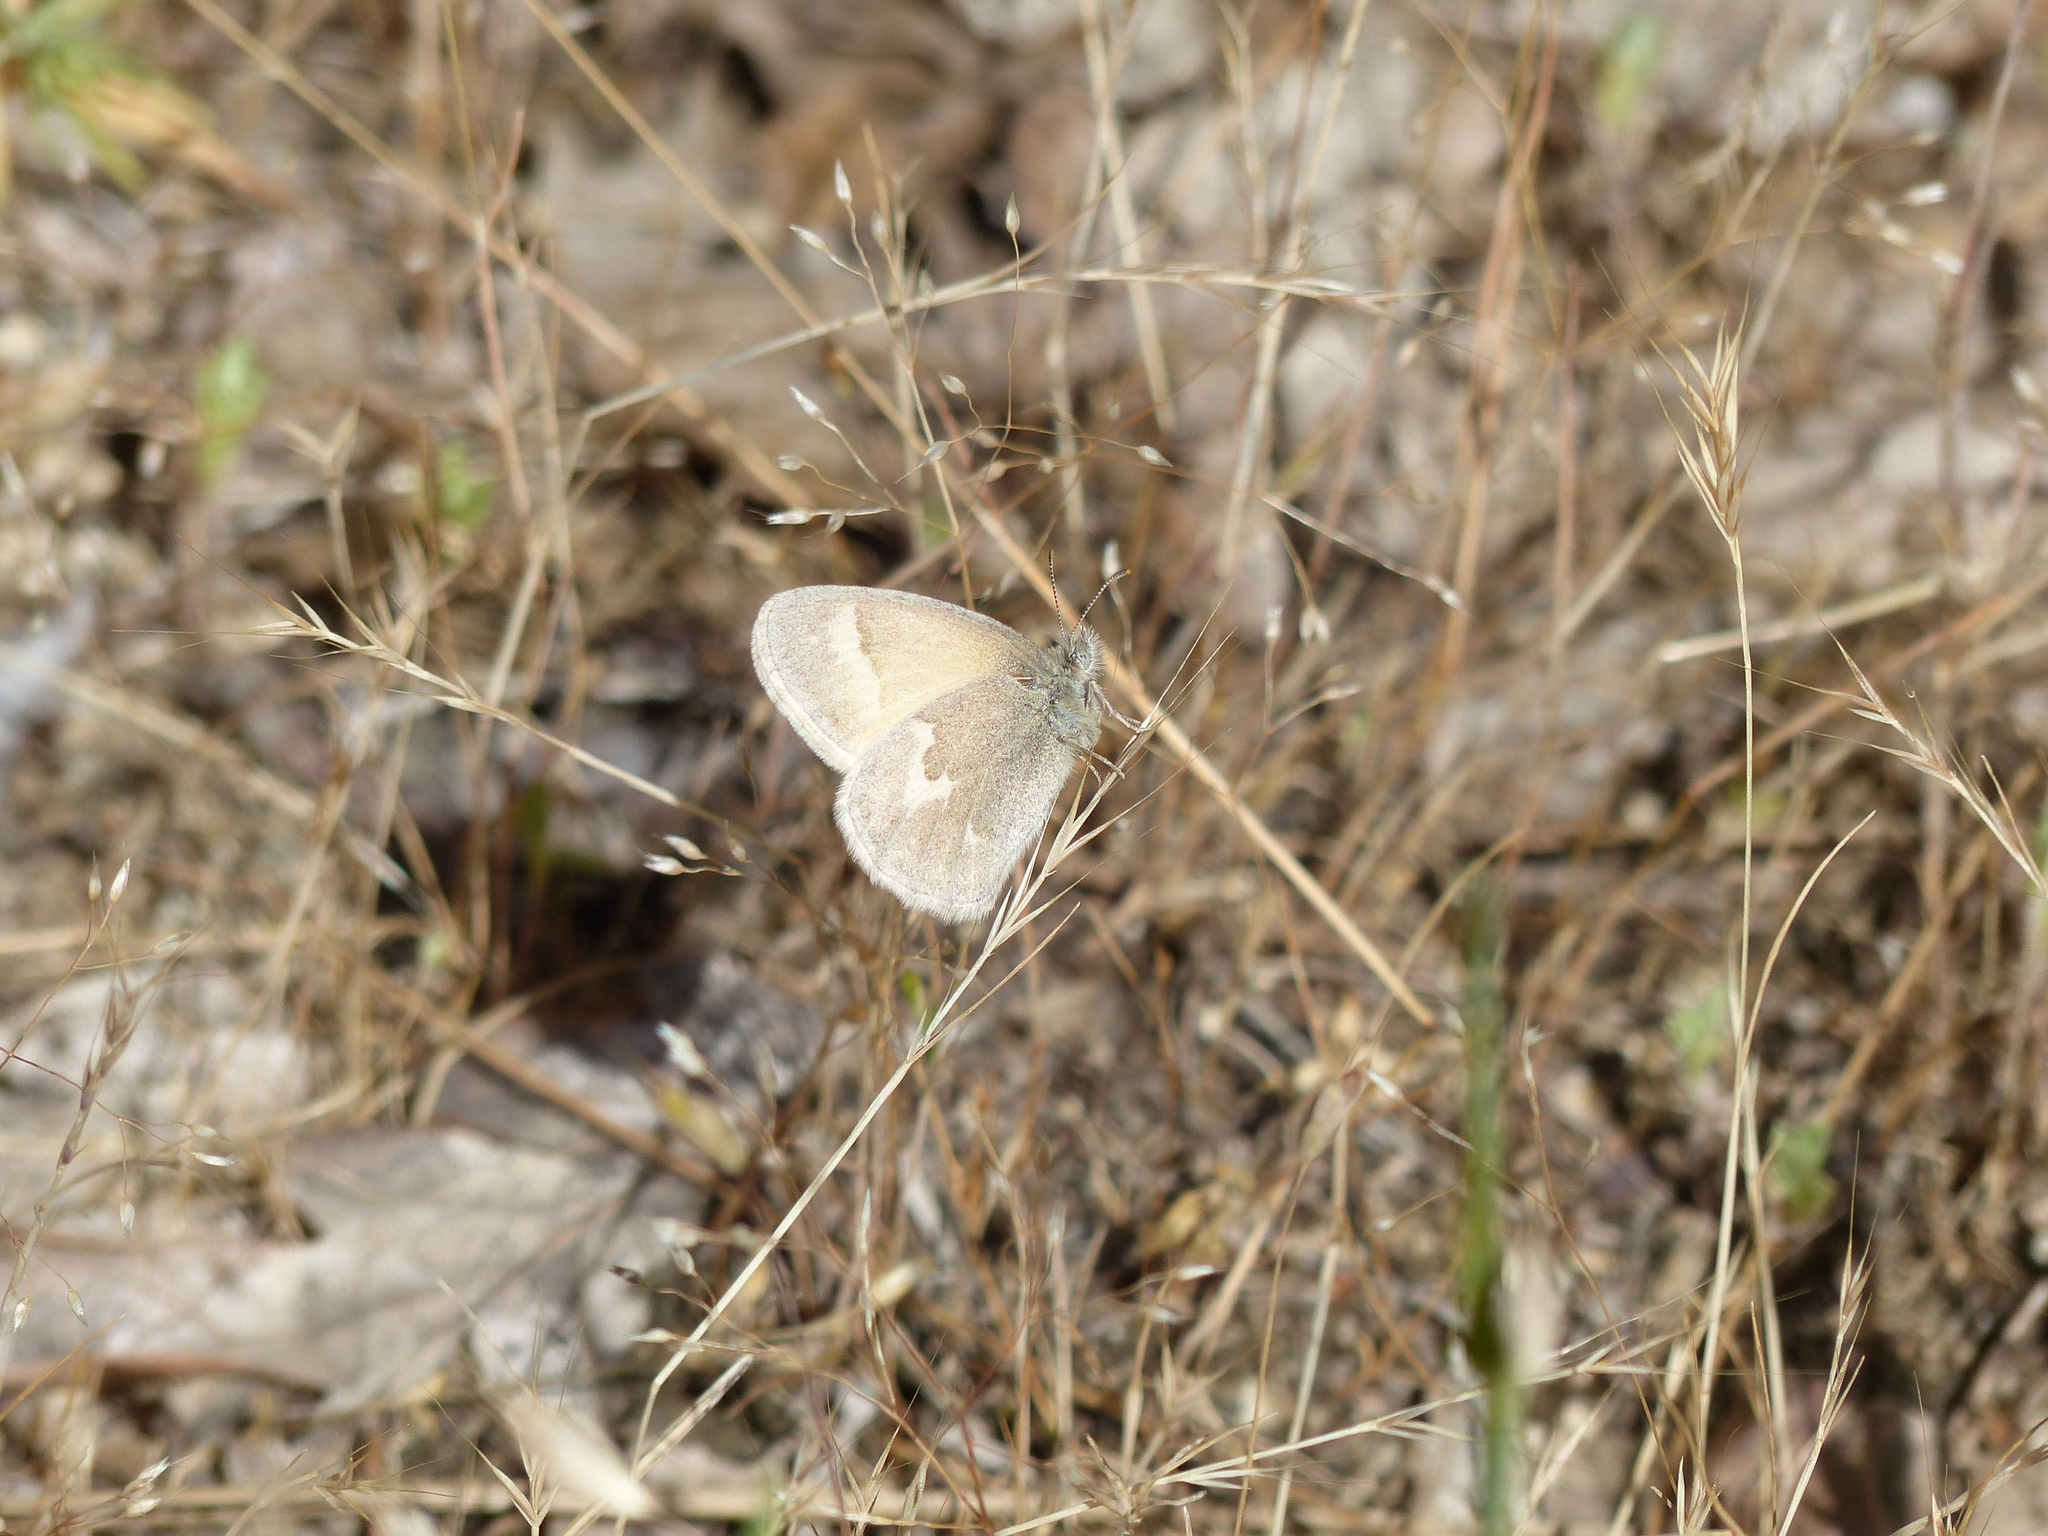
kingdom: Animalia
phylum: Arthropoda
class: Insecta
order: Lepidoptera
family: Nymphalidae
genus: Coenonympha
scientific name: Coenonympha california
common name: Common ringlet
